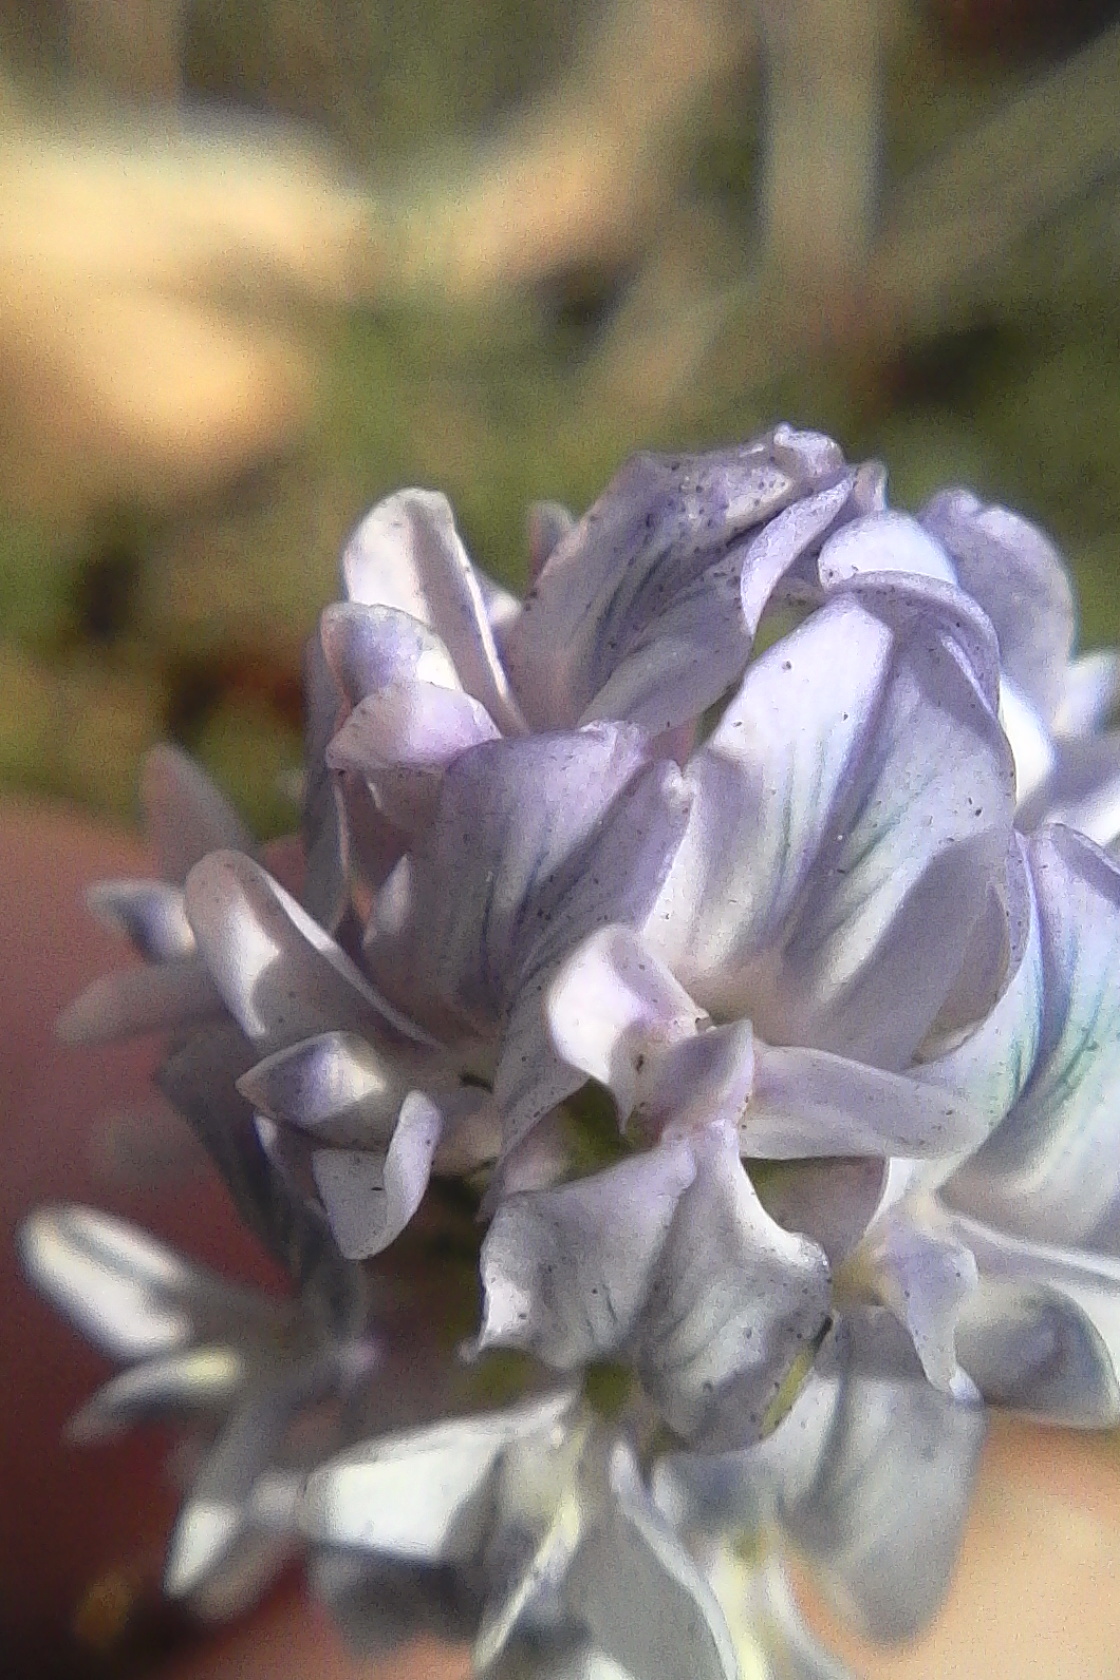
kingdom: Plantae
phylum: Tracheophyta
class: Magnoliopsida
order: Fabales
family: Fabaceae
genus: Medicago
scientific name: Medicago sativa
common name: Alfalfa
